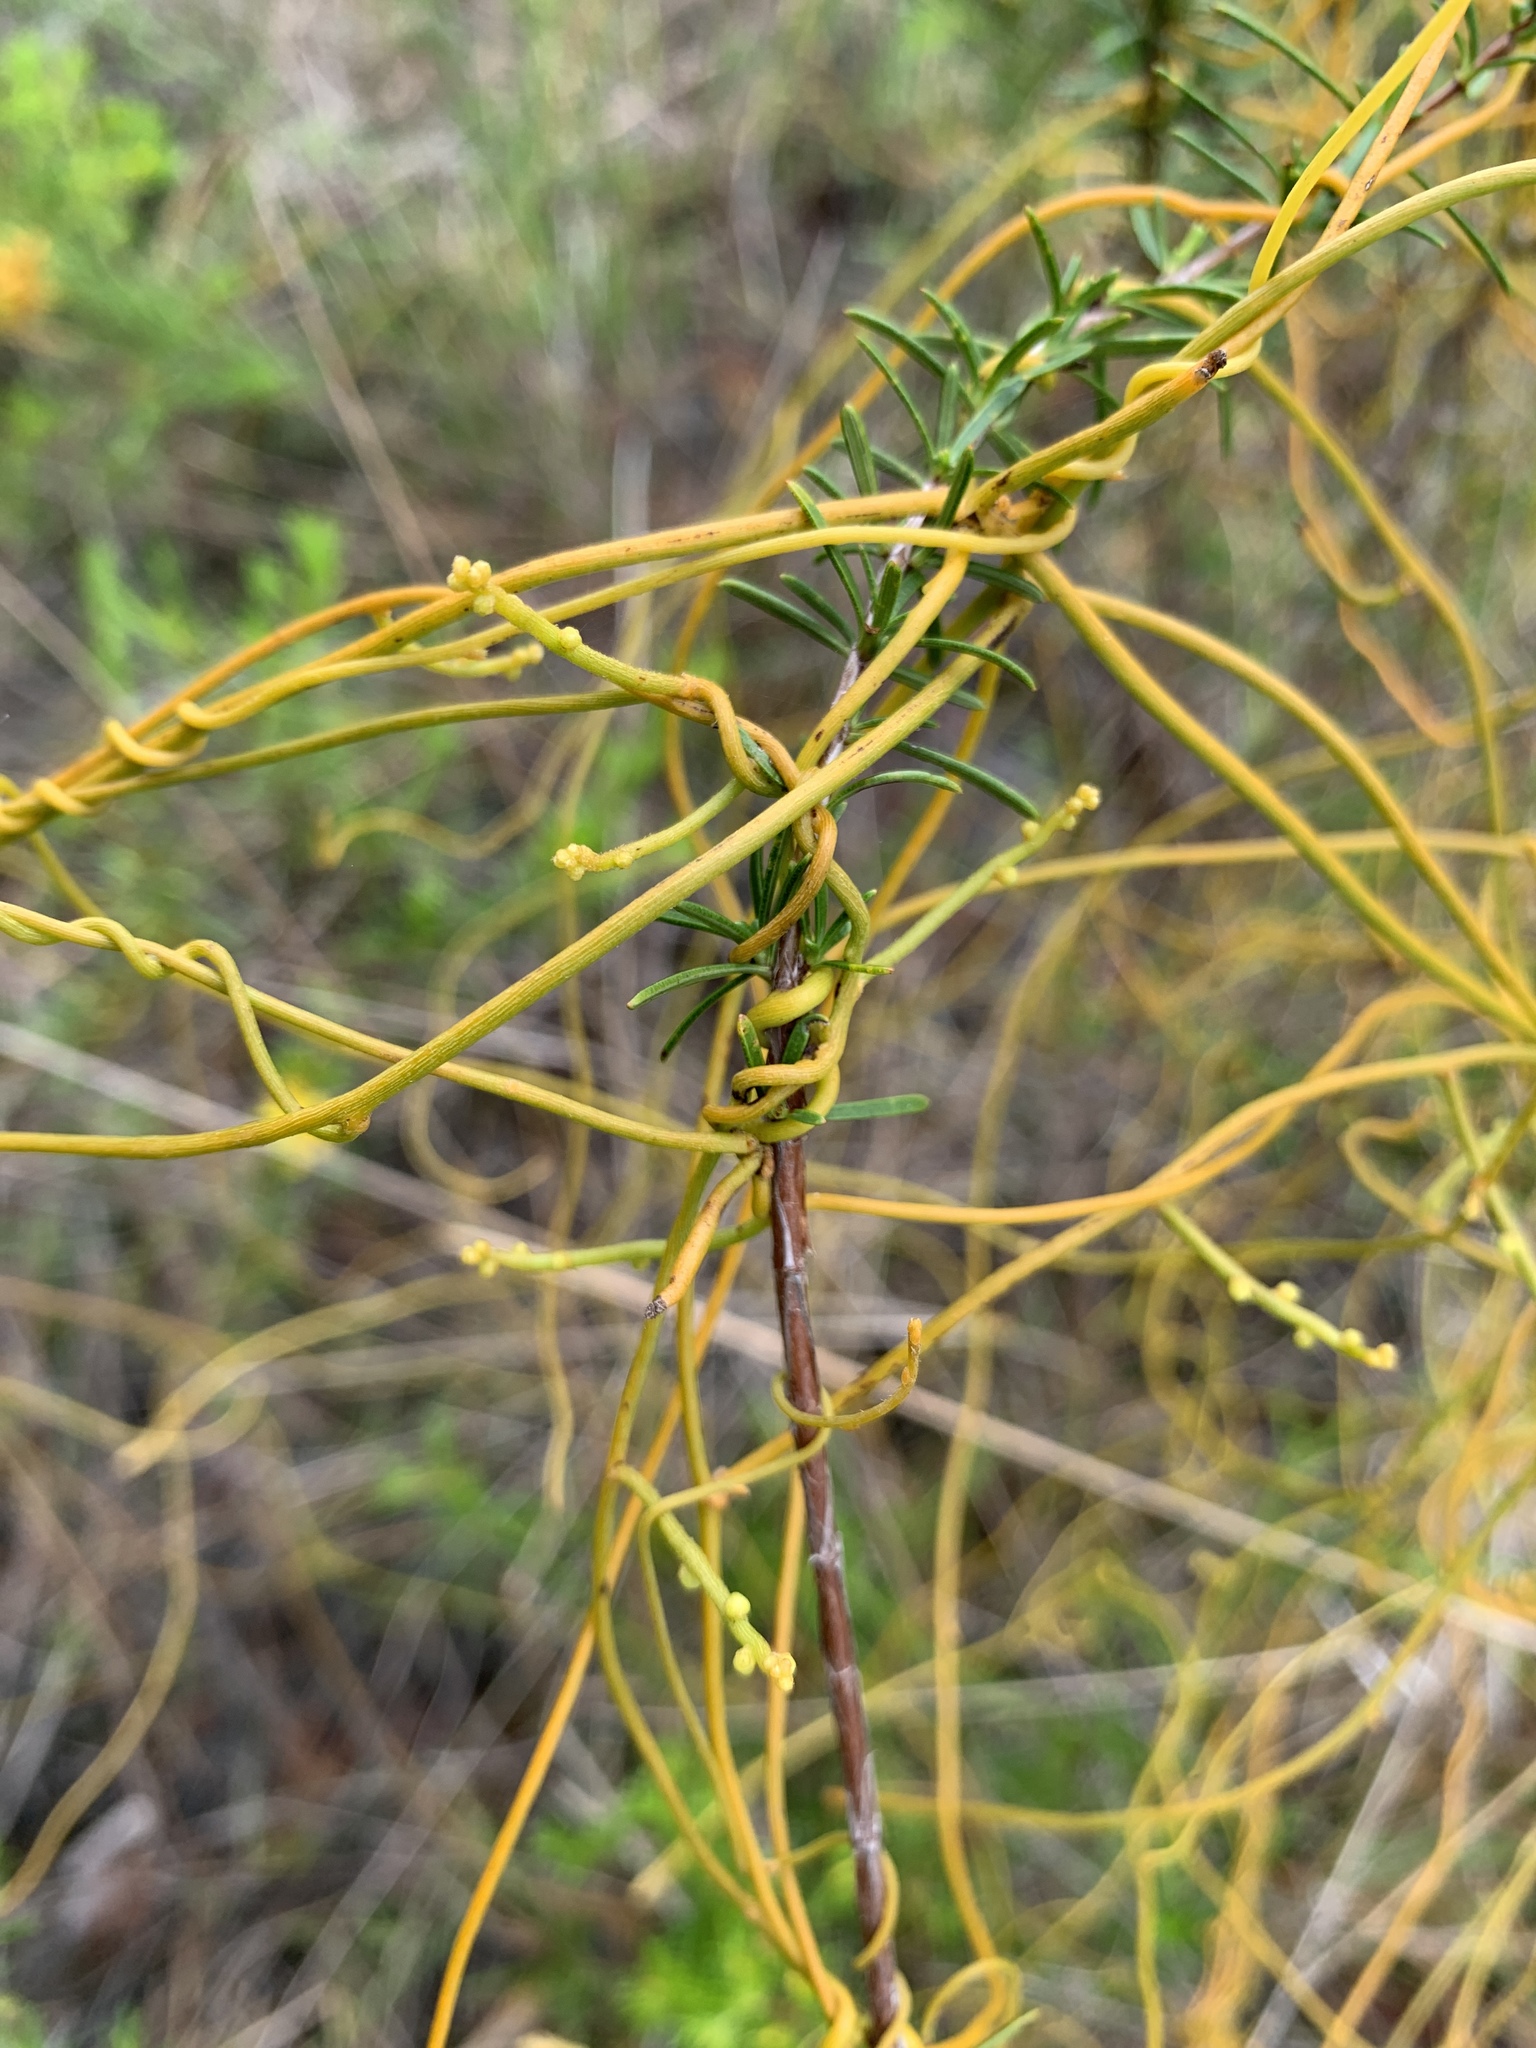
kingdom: Plantae
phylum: Tracheophyta
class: Magnoliopsida
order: Laurales
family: Lauraceae
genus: Cassytha
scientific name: Cassytha filiformis
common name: Dodder-laurel
